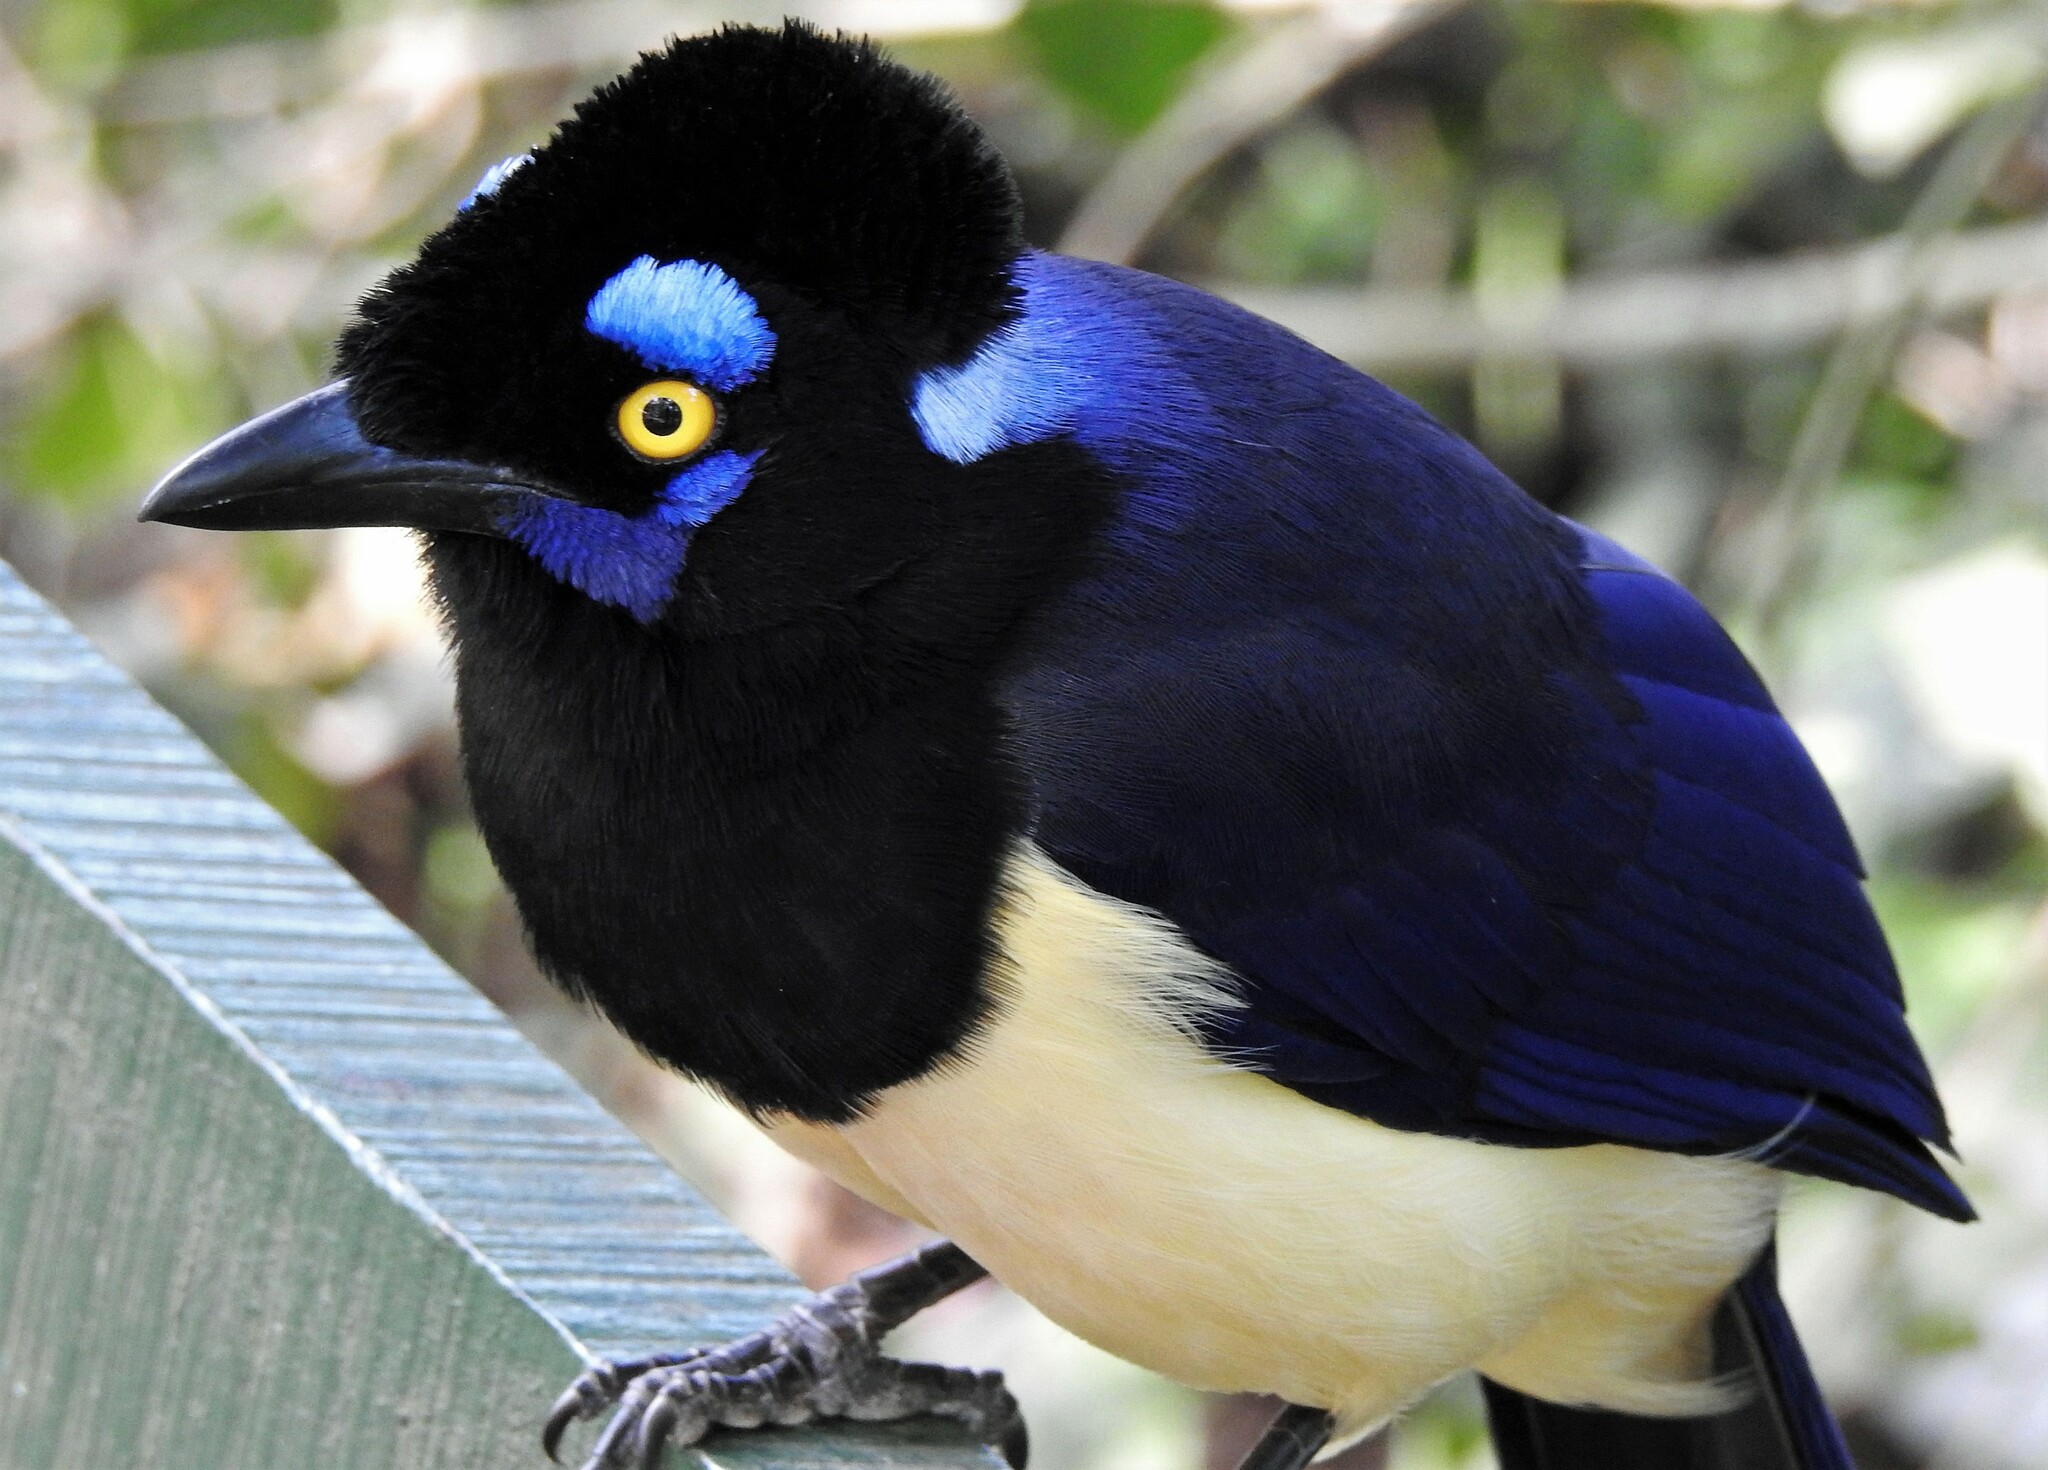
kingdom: Animalia
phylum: Chordata
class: Aves
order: Passeriformes
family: Corvidae
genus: Cyanocorax
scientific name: Cyanocorax chrysops
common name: Plush-crested jay
